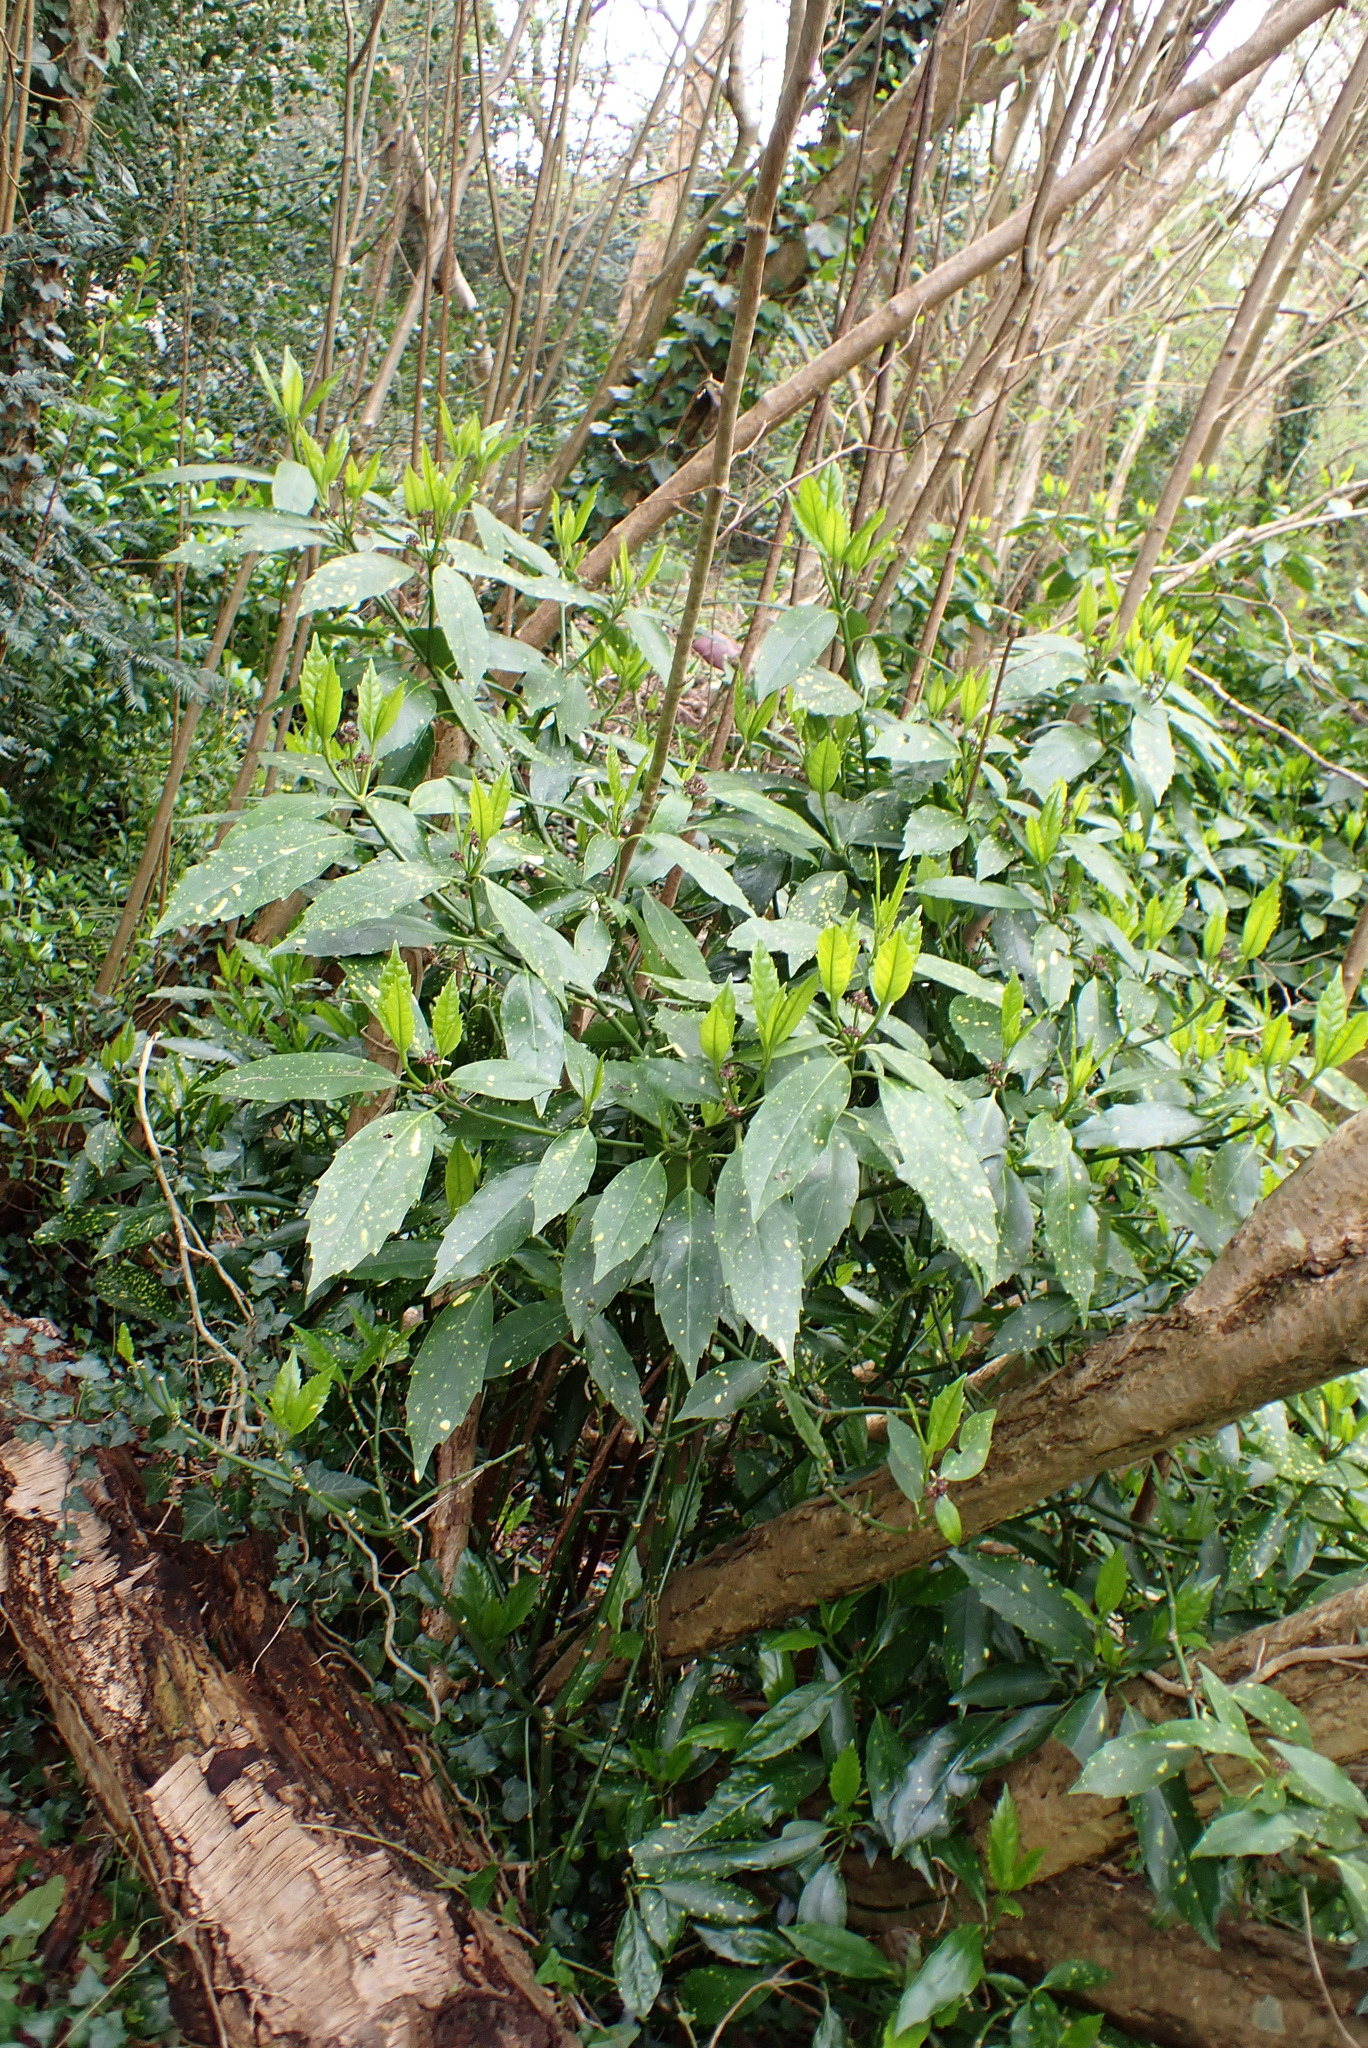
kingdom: Plantae
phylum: Tracheophyta
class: Magnoliopsida
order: Garryales
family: Garryaceae
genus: Aucuba
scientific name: Aucuba japonica
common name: Spotted-laurel
